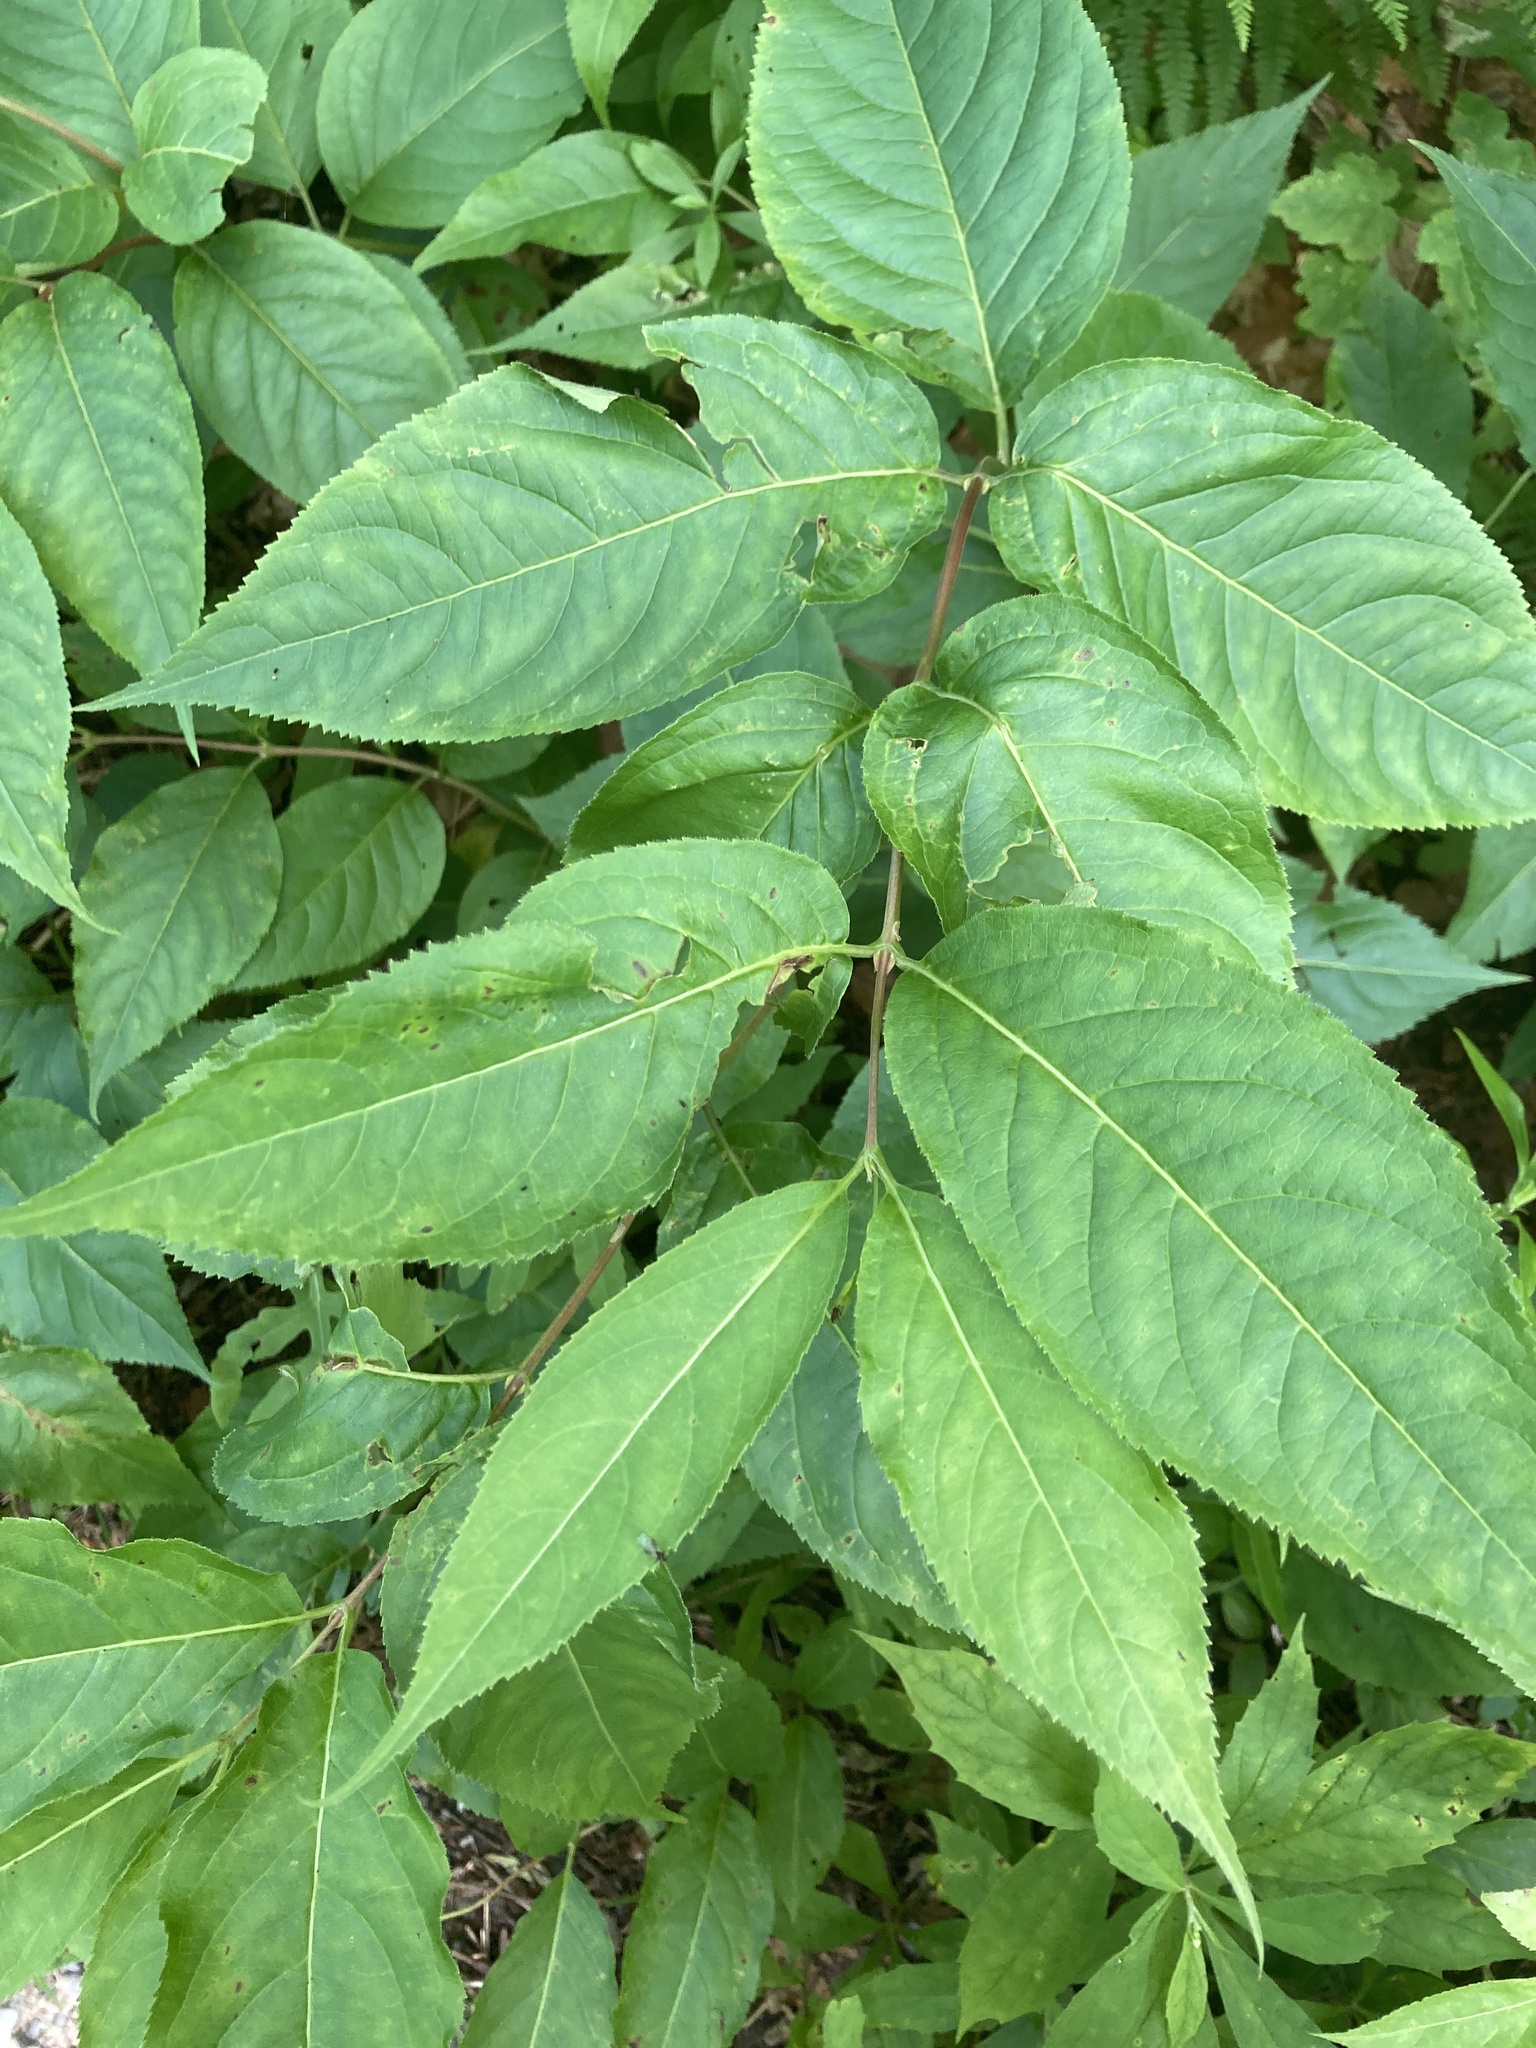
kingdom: Plantae
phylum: Tracheophyta
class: Magnoliopsida
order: Dipsacales
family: Caprifoliaceae
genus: Diervilla
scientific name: Diervilla lonicera
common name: Bush-honeysuckle
